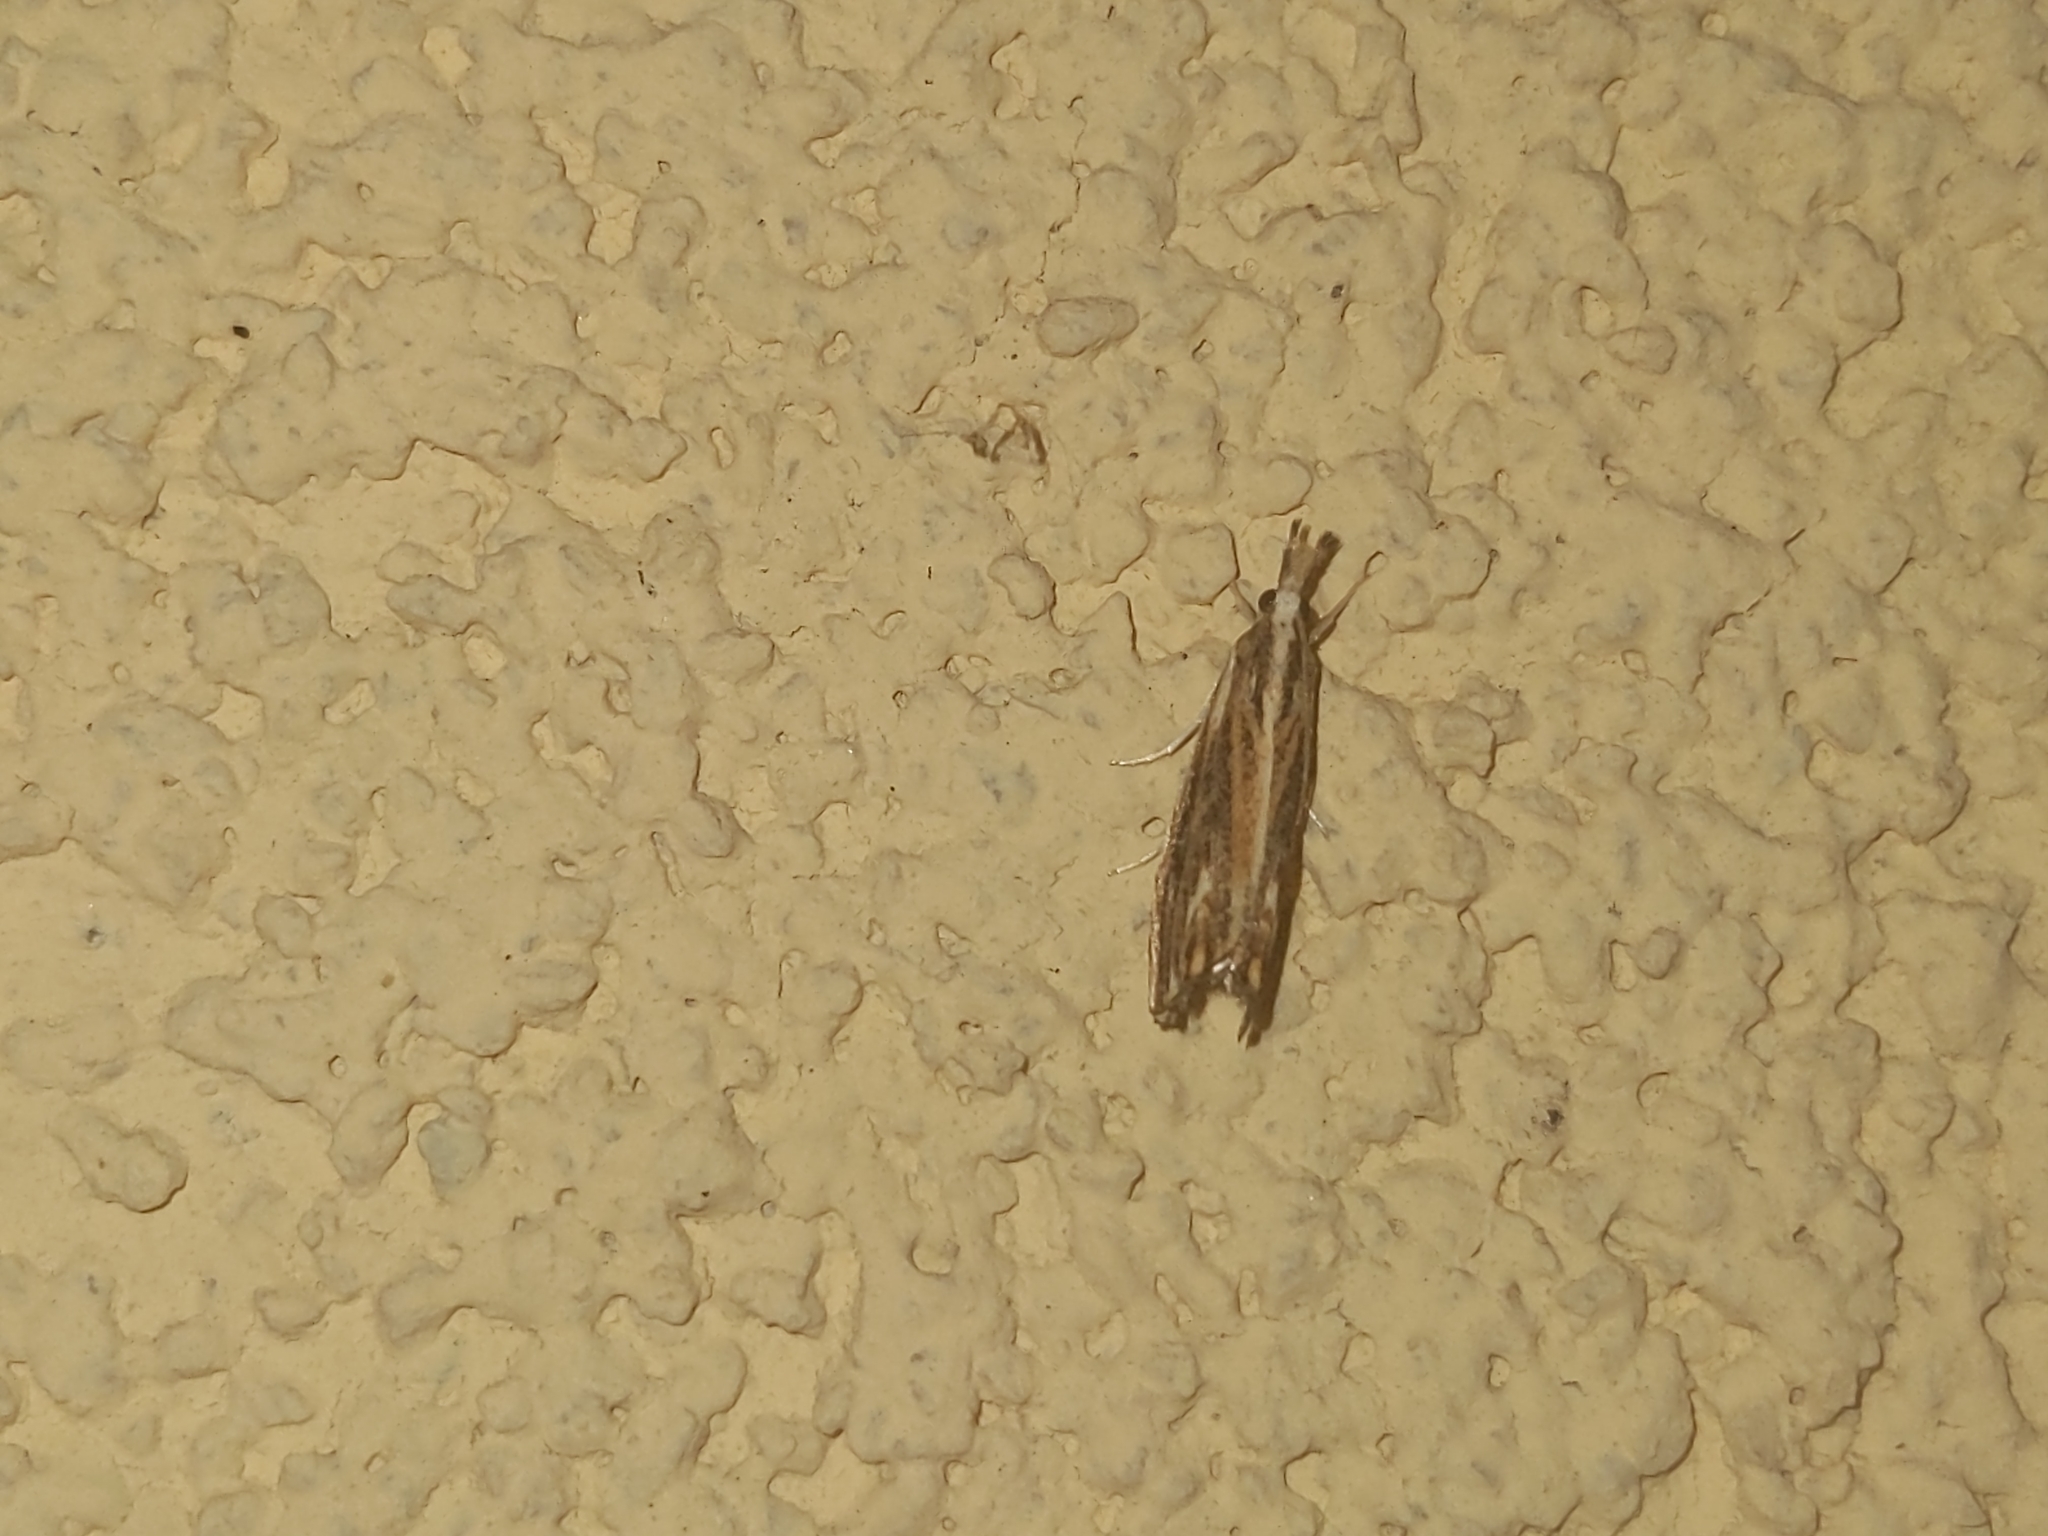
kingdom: Animalia
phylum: Arthropoda
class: Insecta
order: Lepidoptera
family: Crambidae
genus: Catoptria
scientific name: Catoptria verellus
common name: Marbled grass-veneer
